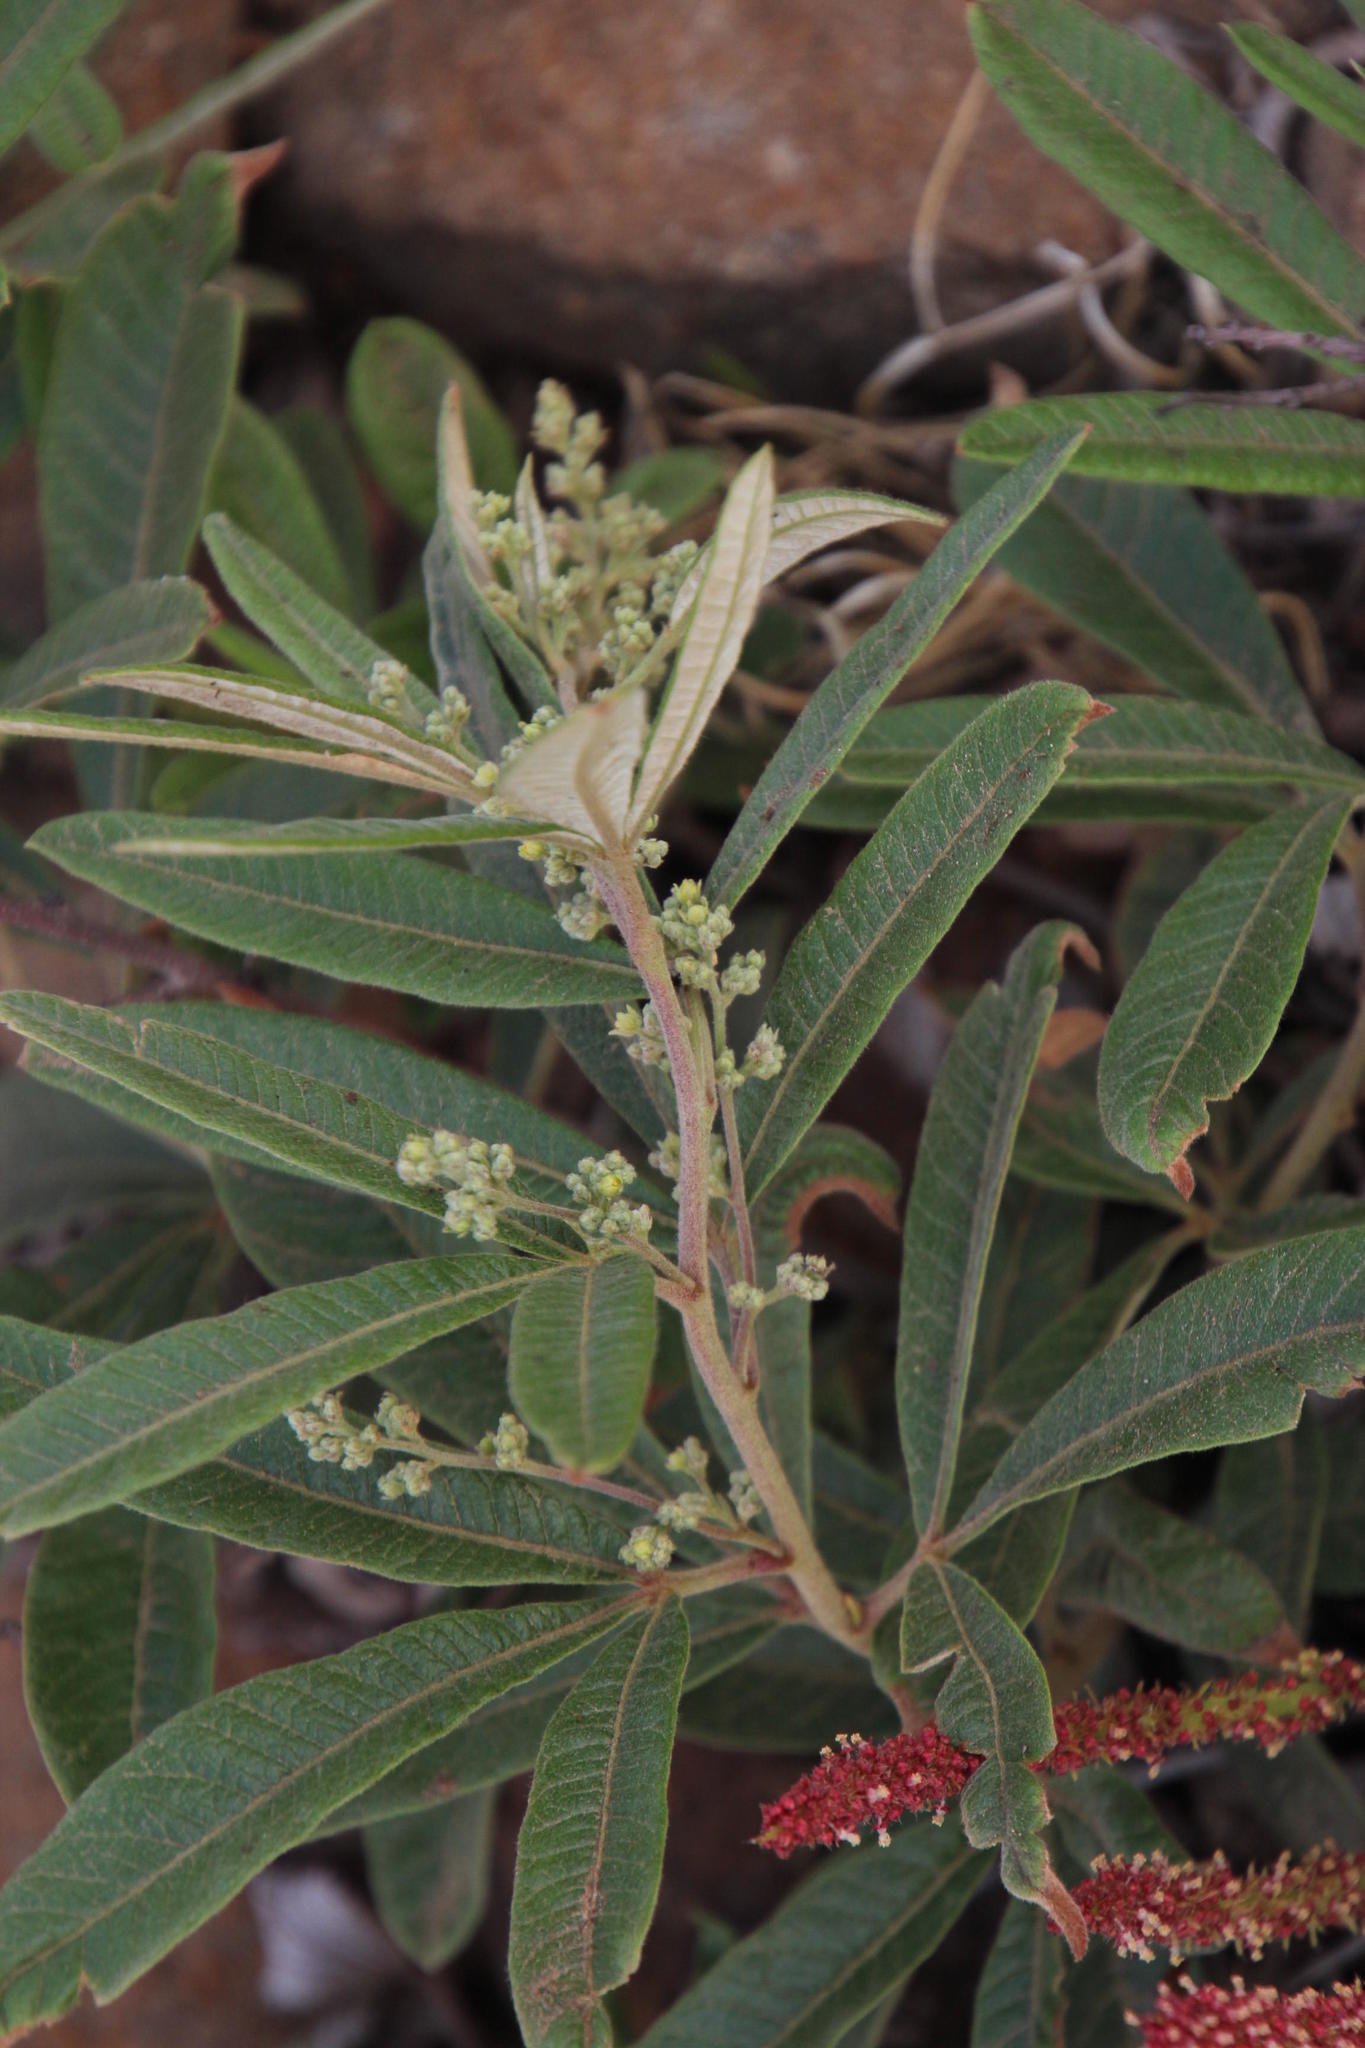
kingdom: Plantae
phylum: Tracheophyta
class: Magnoliopsida
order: Sapindales
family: Anacardiaceae
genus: Searsia
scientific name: Searsia discolor
